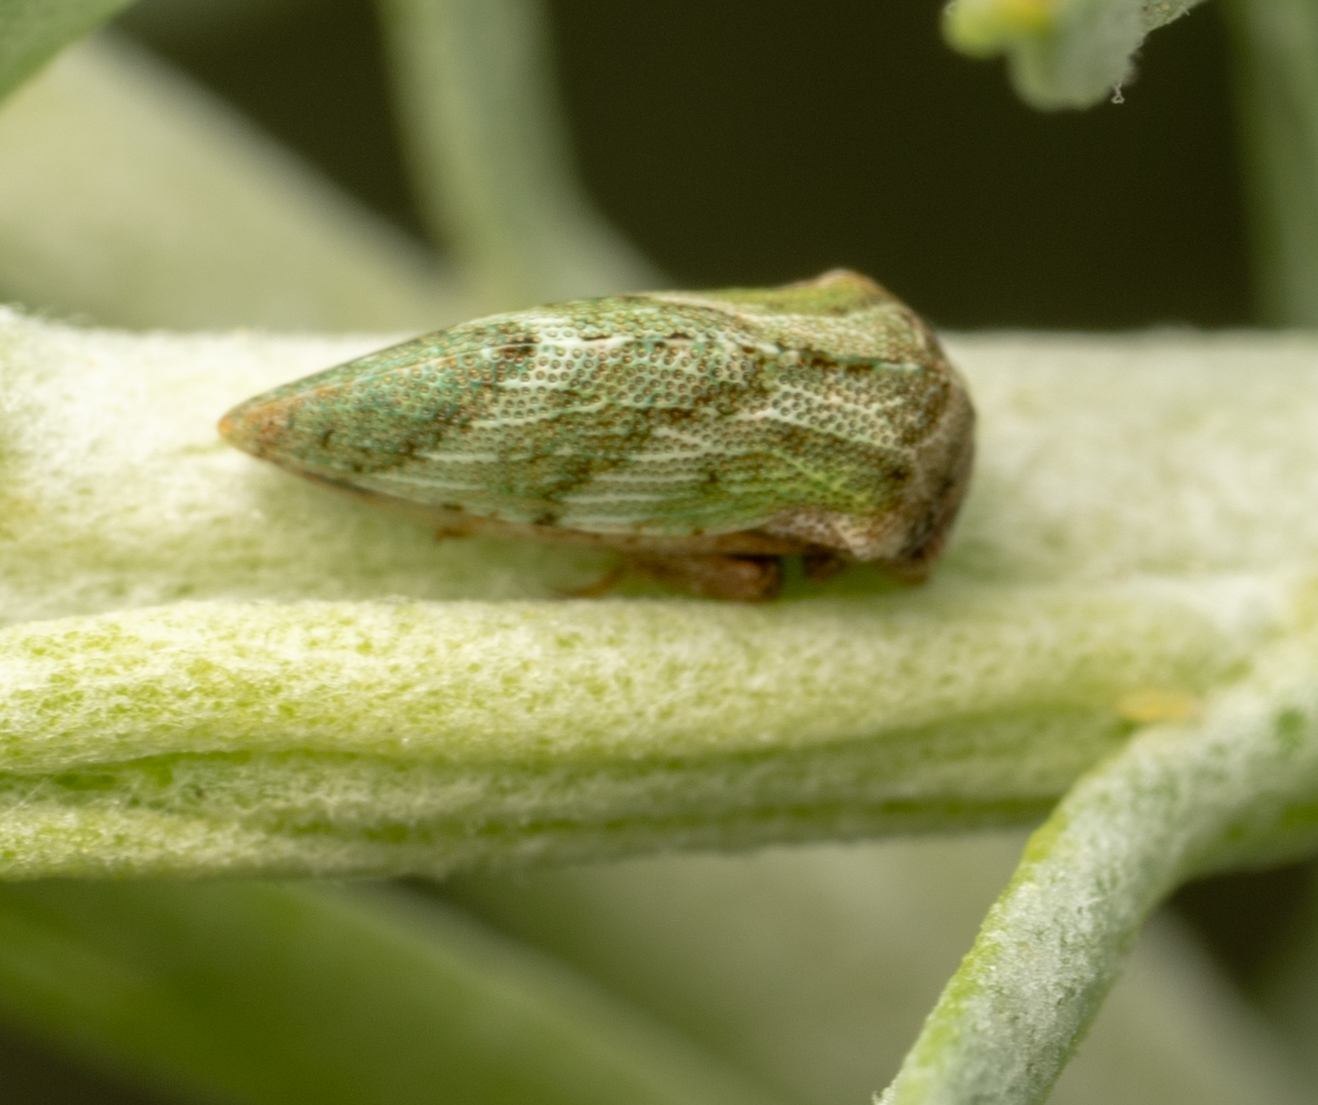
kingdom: Animalia
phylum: Arthropoda
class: Insecta
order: Hemiptera
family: Membracidae
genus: Publilia
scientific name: Publilia modesta
